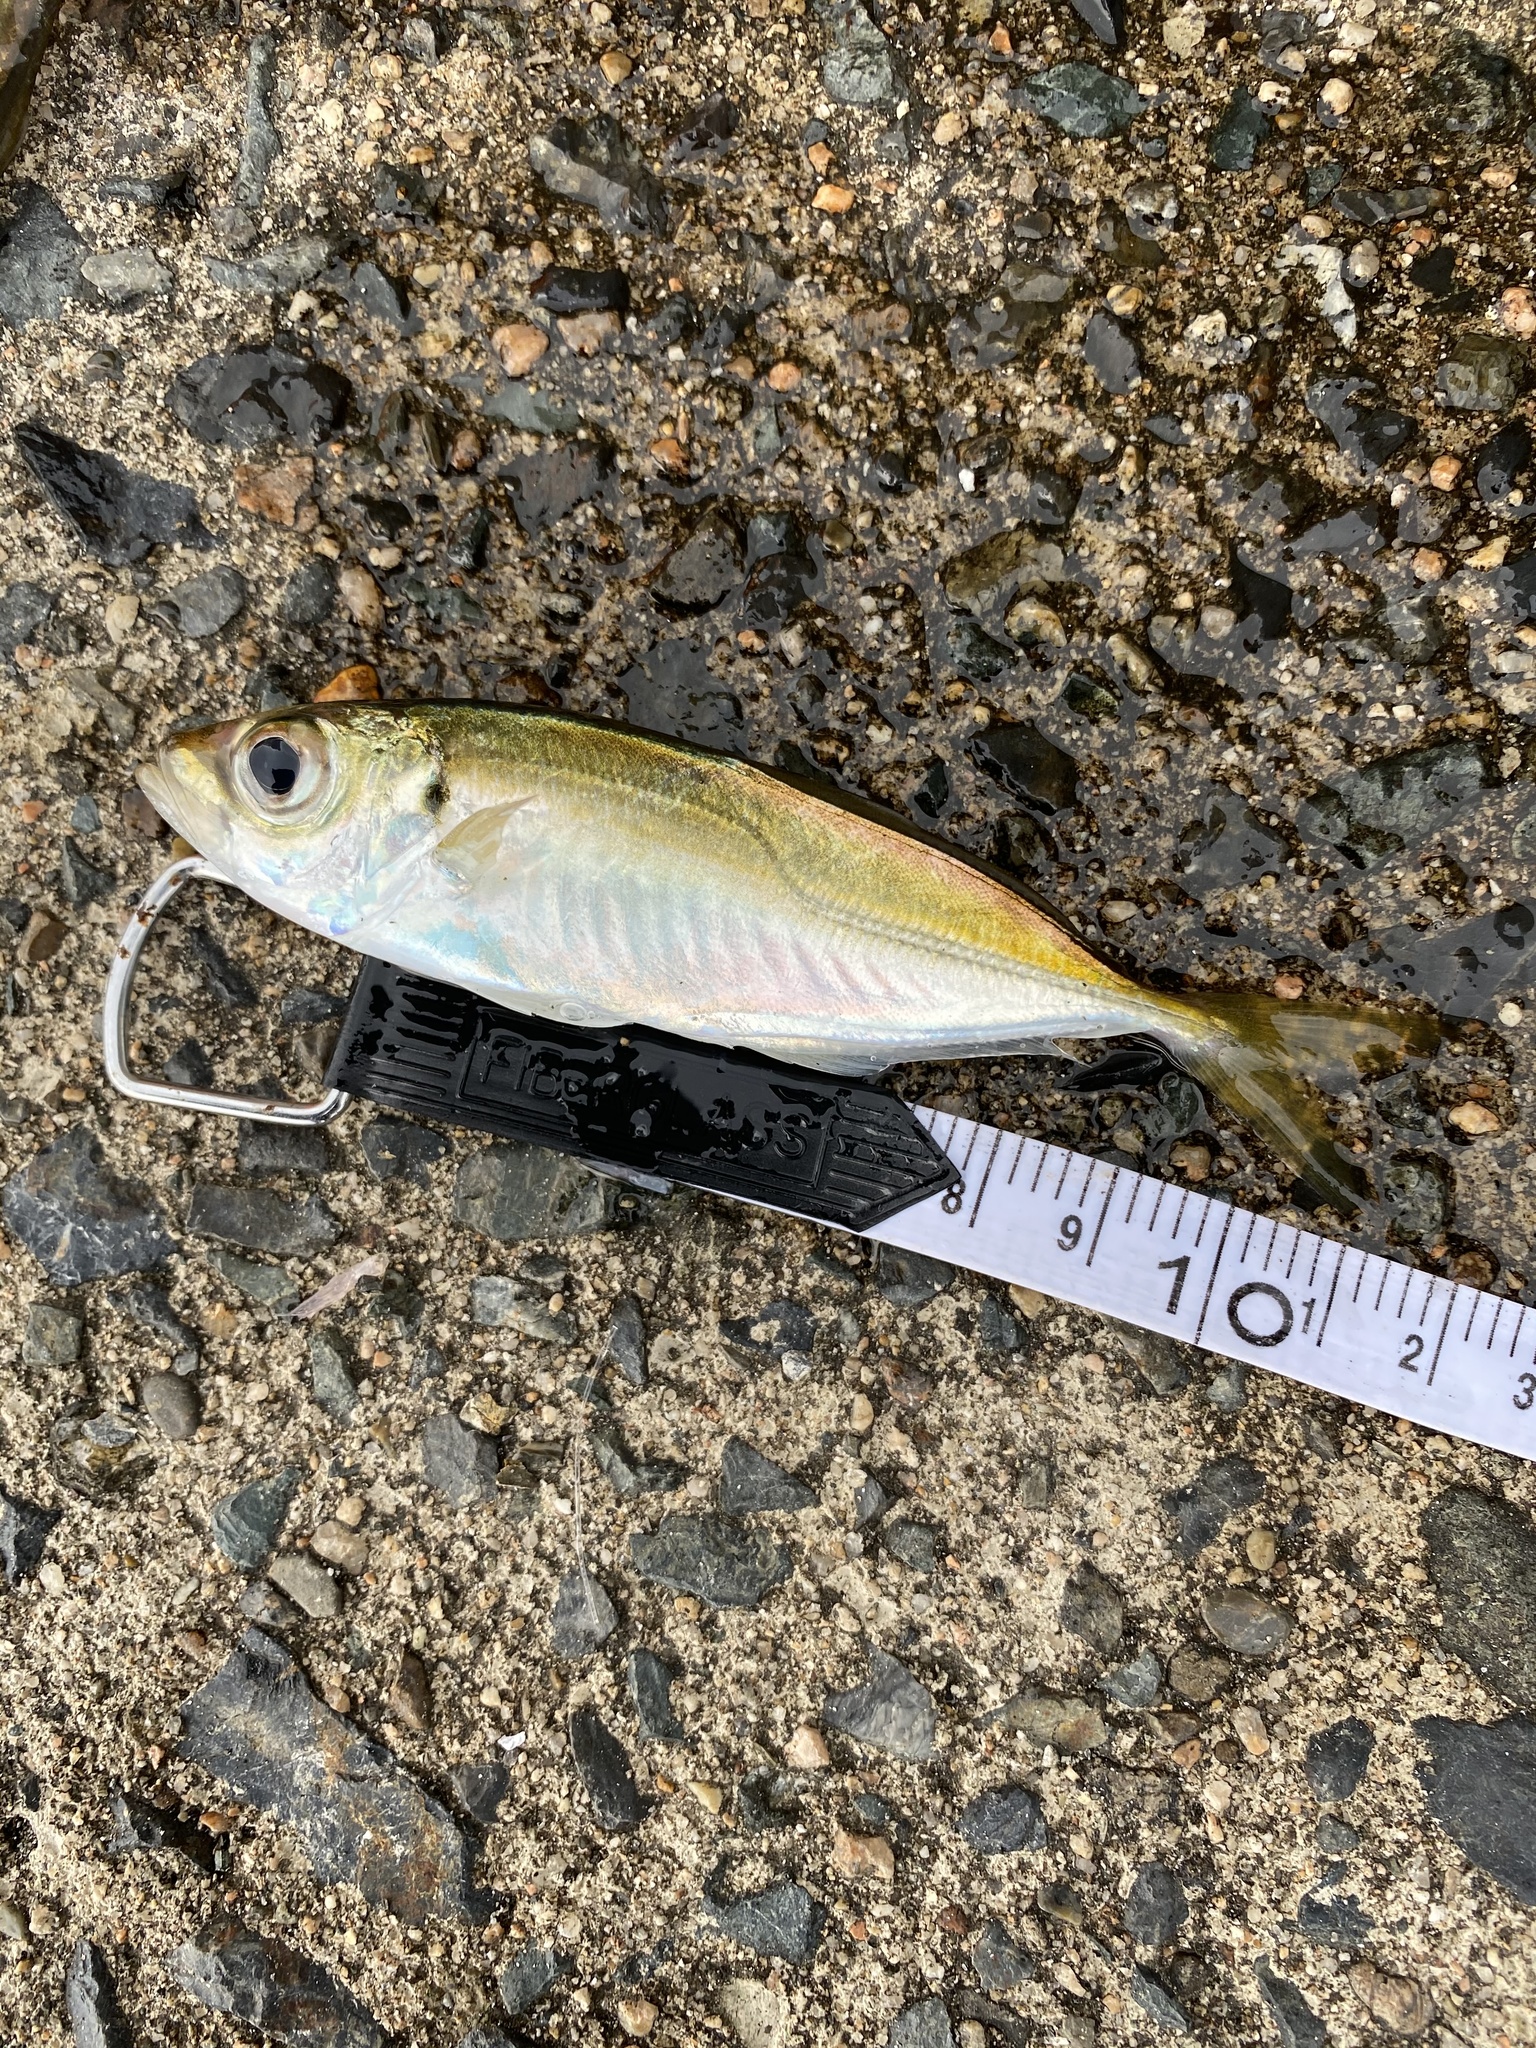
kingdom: Animalia
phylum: Chordata
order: Perciformes
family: Carangidae
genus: Trachurus
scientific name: Trachurus japonicus
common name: Japanese jack mackerel
